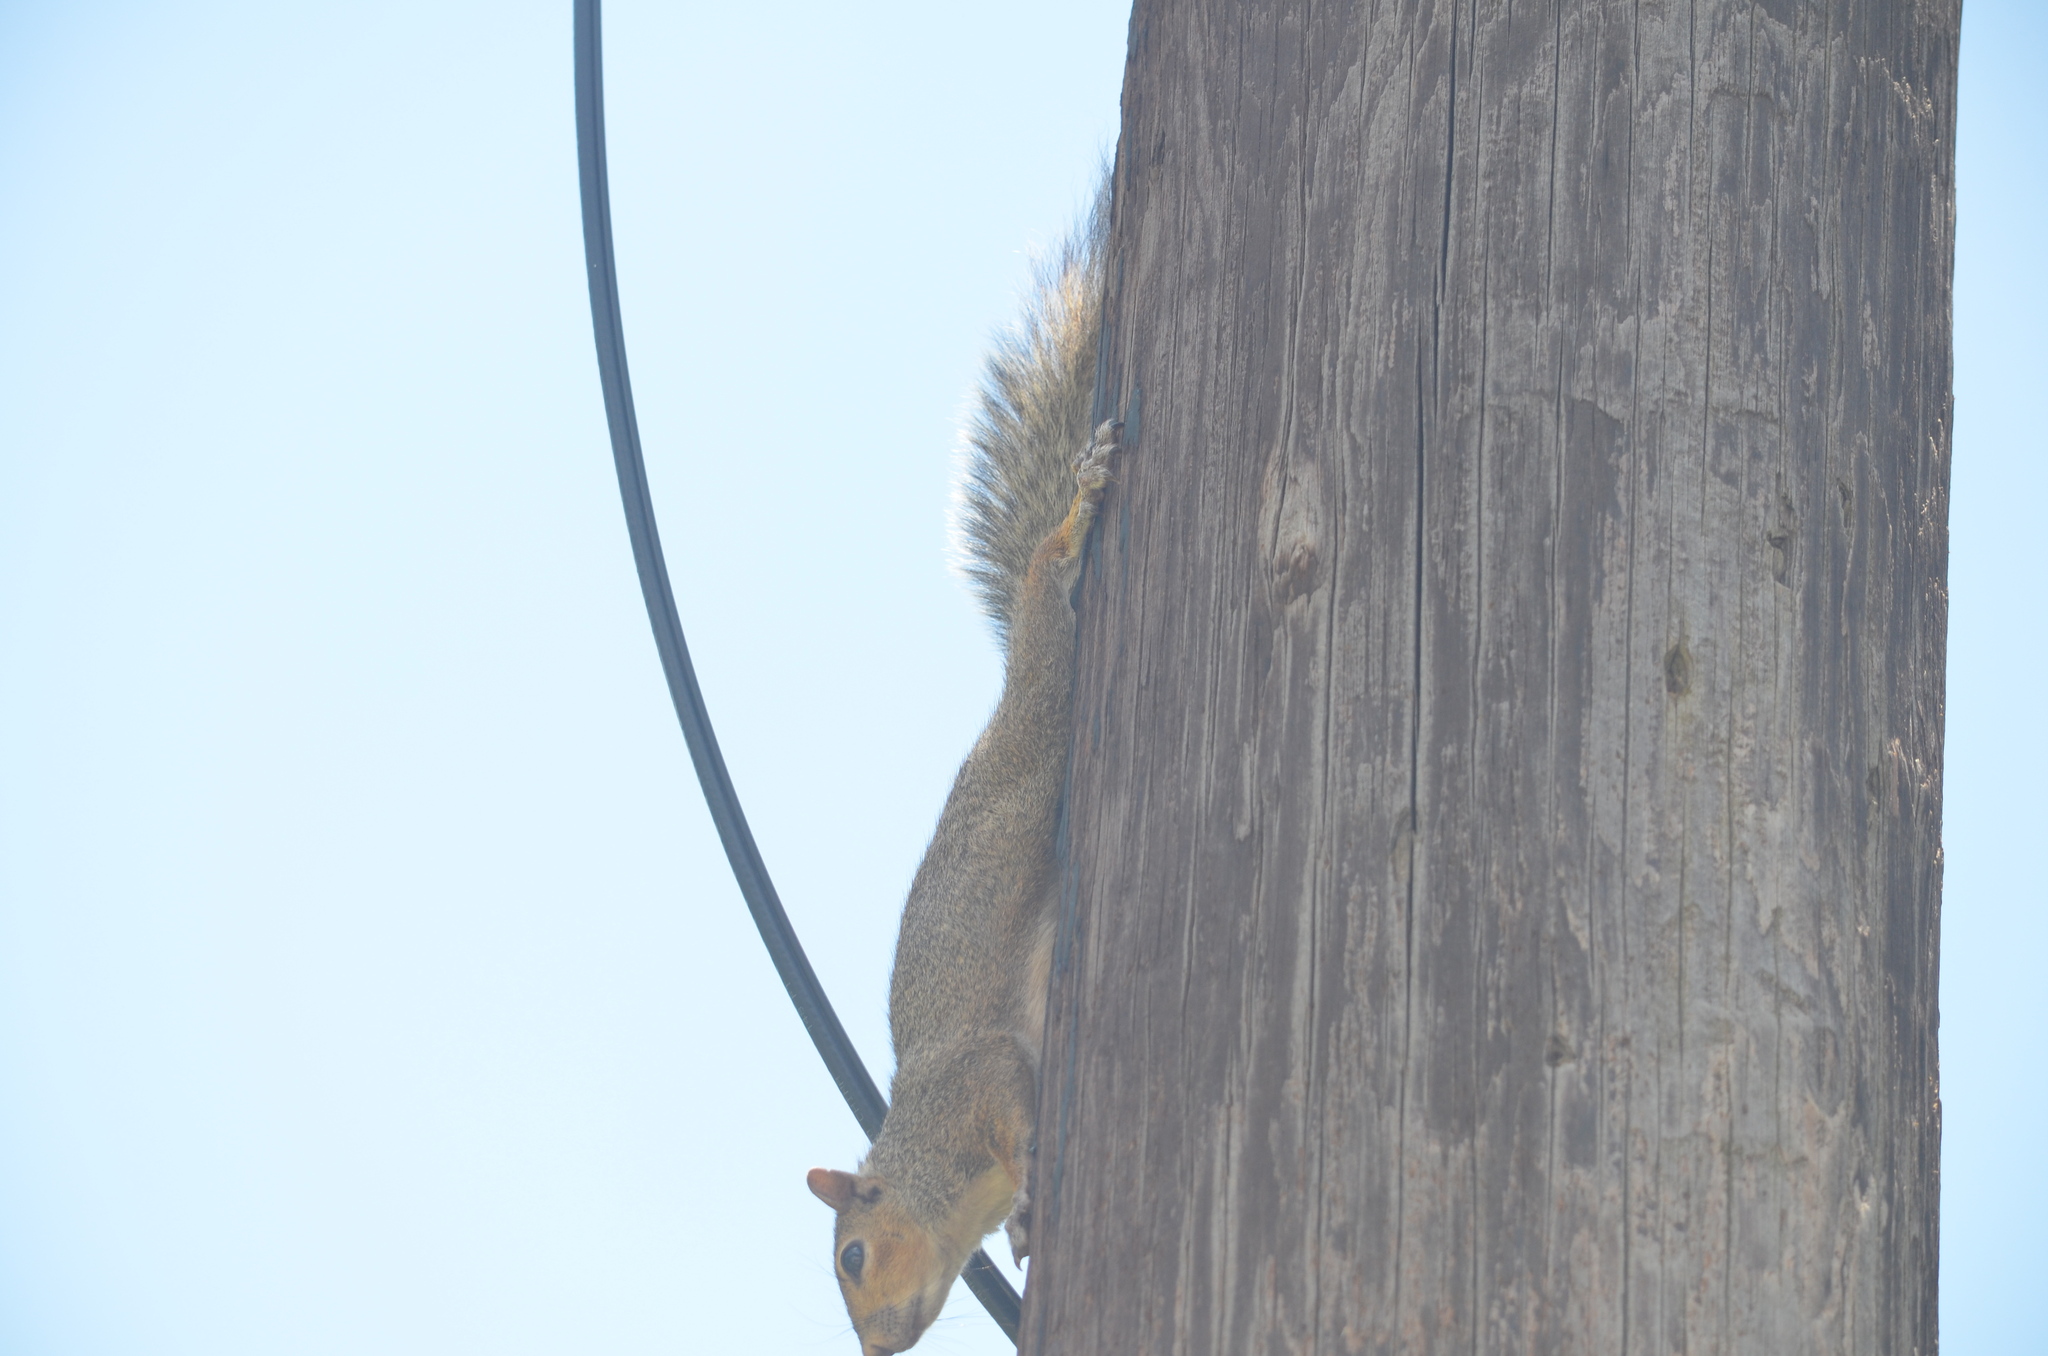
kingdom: Animalia
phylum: Chordata
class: Mammalia
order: Rodentia
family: Sciuridae
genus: Sciurus
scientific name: Sciurus niger
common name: Fox squirrel
